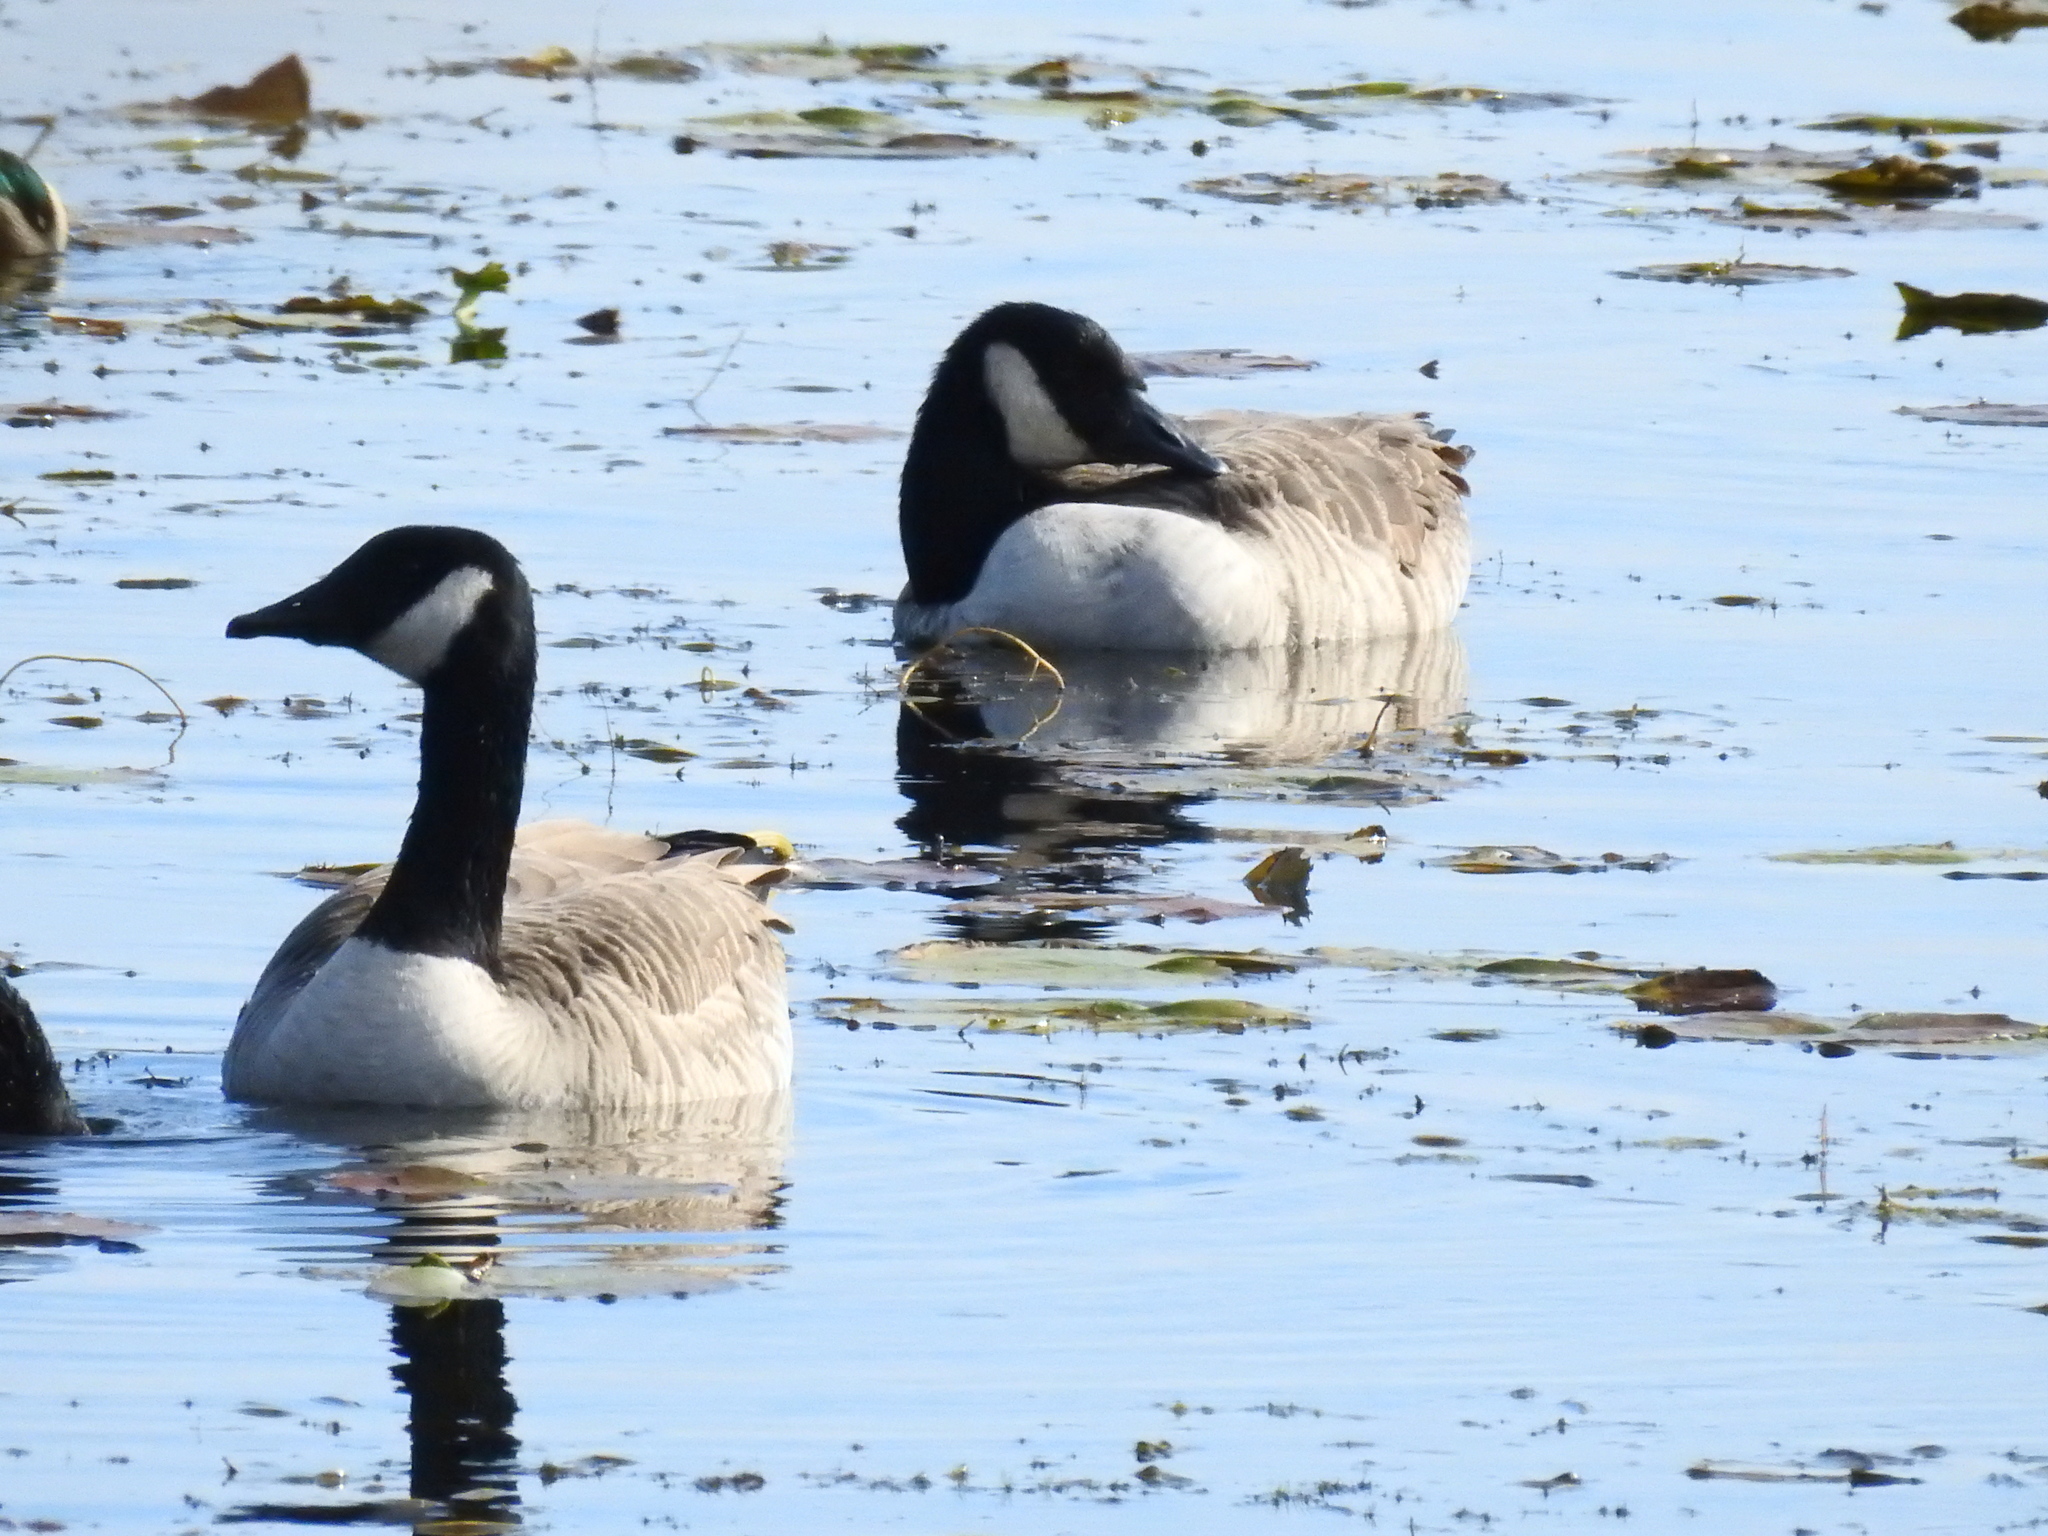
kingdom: Animalia
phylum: Chordata
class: Aves
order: Anseriformes
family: Anatidae
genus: Branta
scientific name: Branta canadensis
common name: Canada goose
